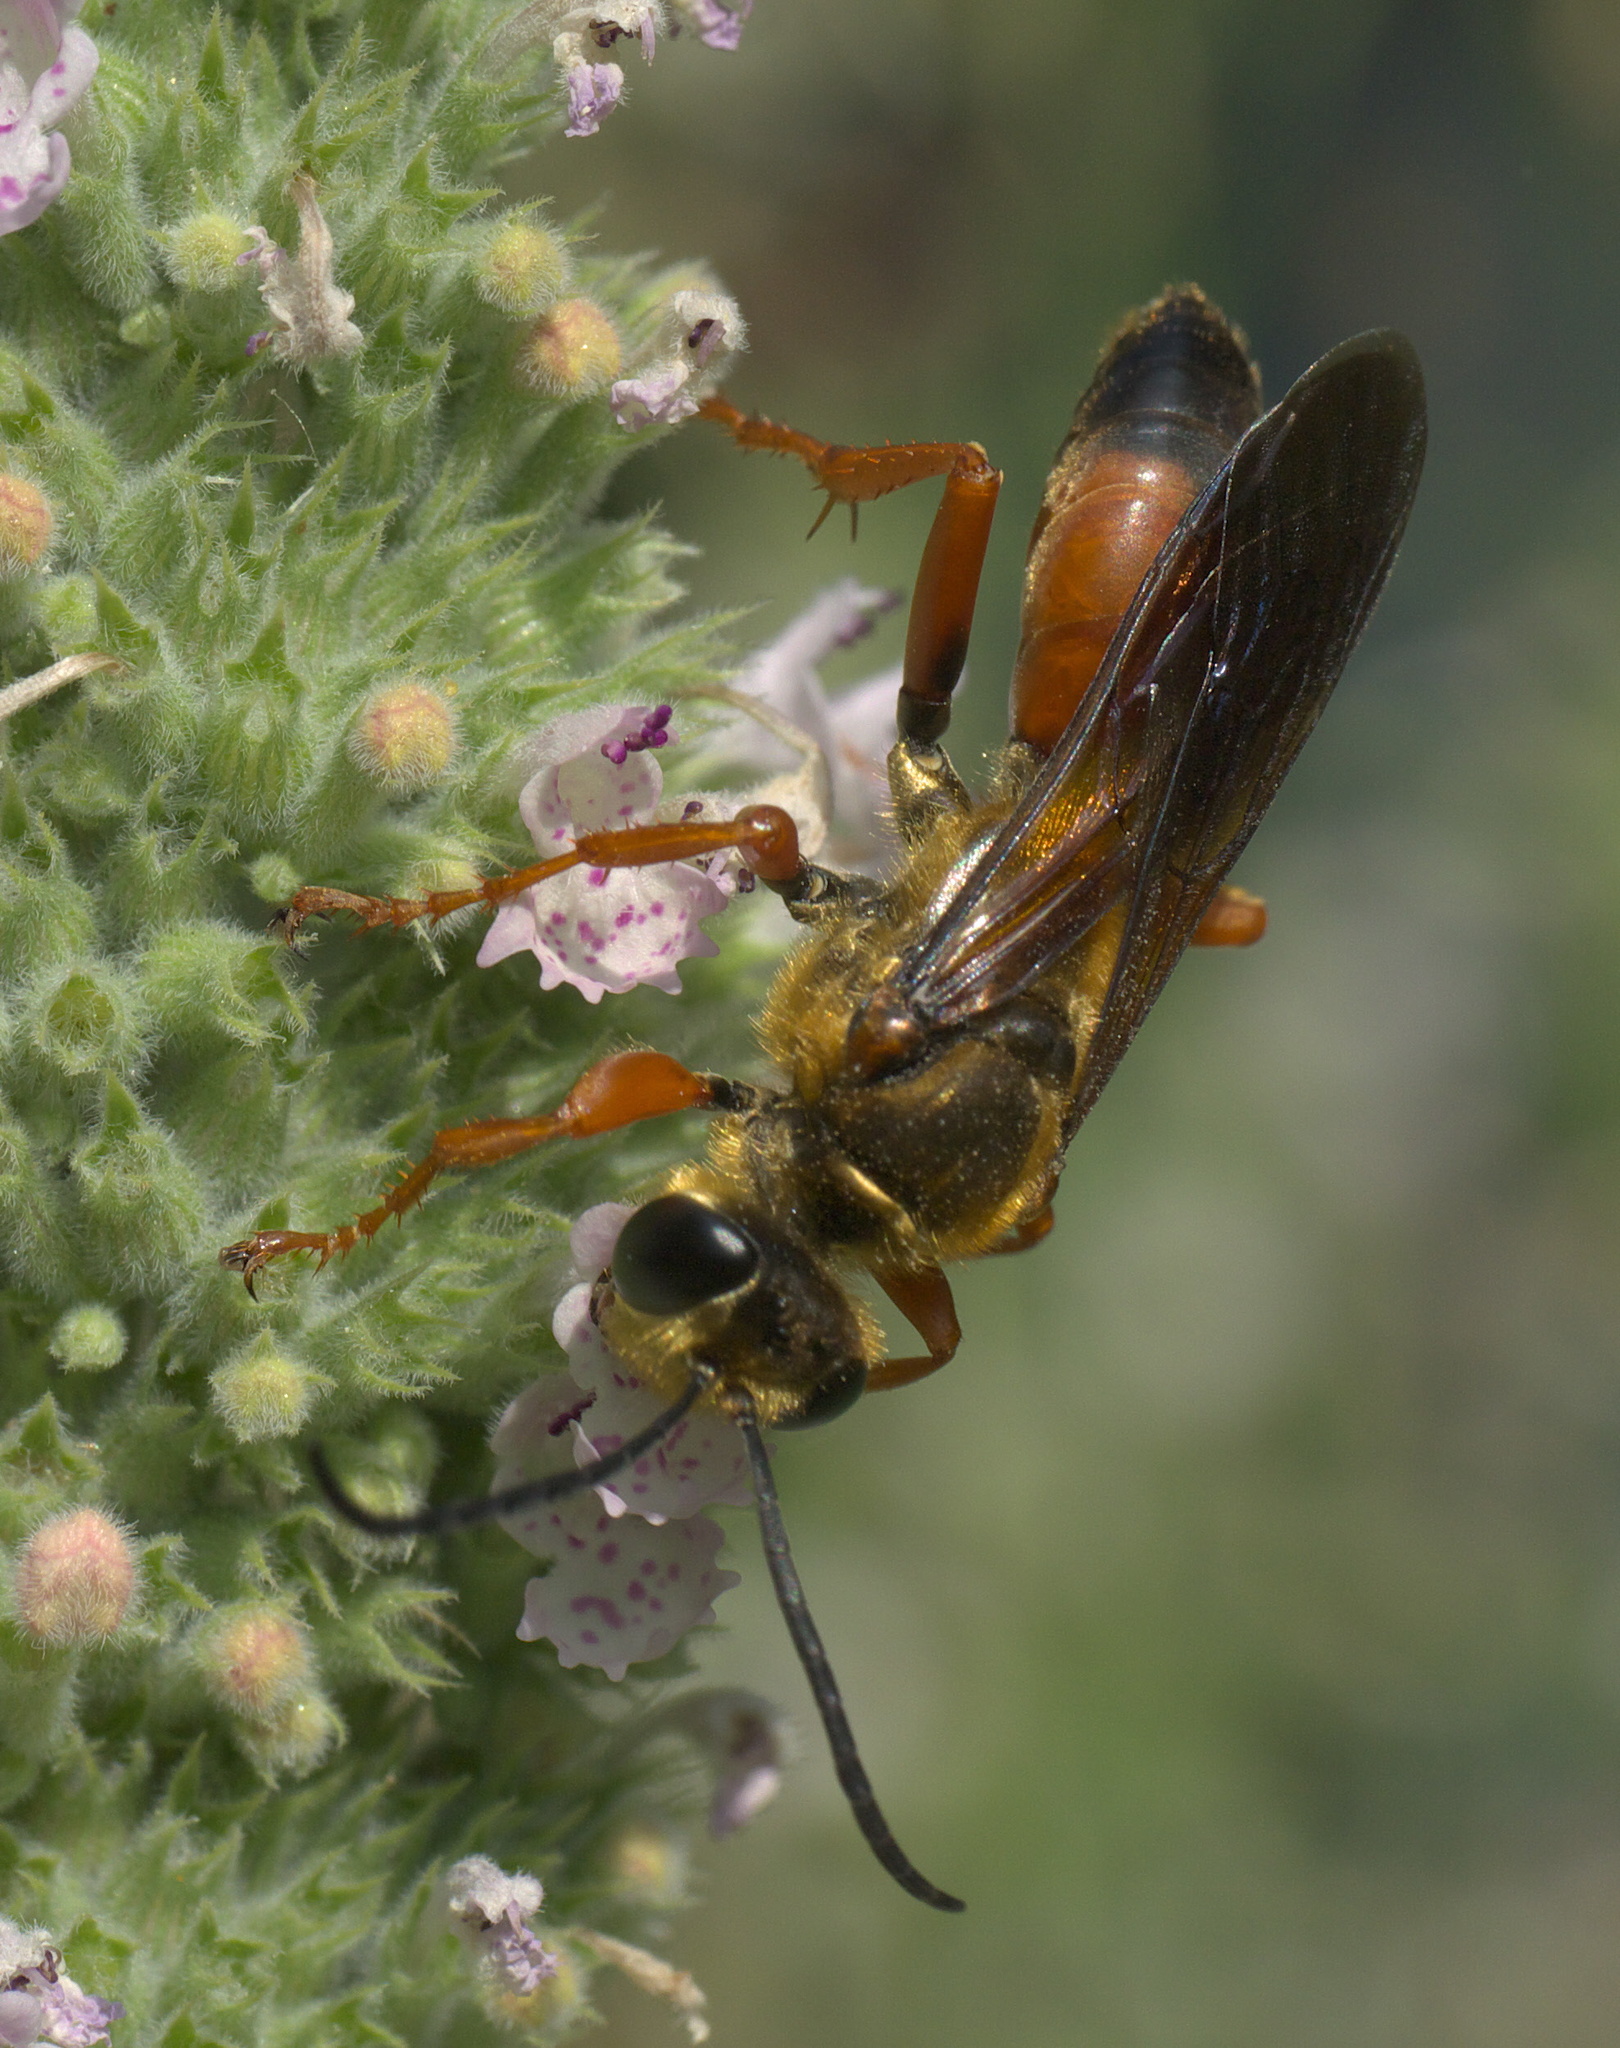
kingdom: Animalia
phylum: Arthropoda
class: Insecta
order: Hymenoptera
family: Sphecidae
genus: Sphex
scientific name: Sphex ichneumoneus
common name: Great golden digger wasp
